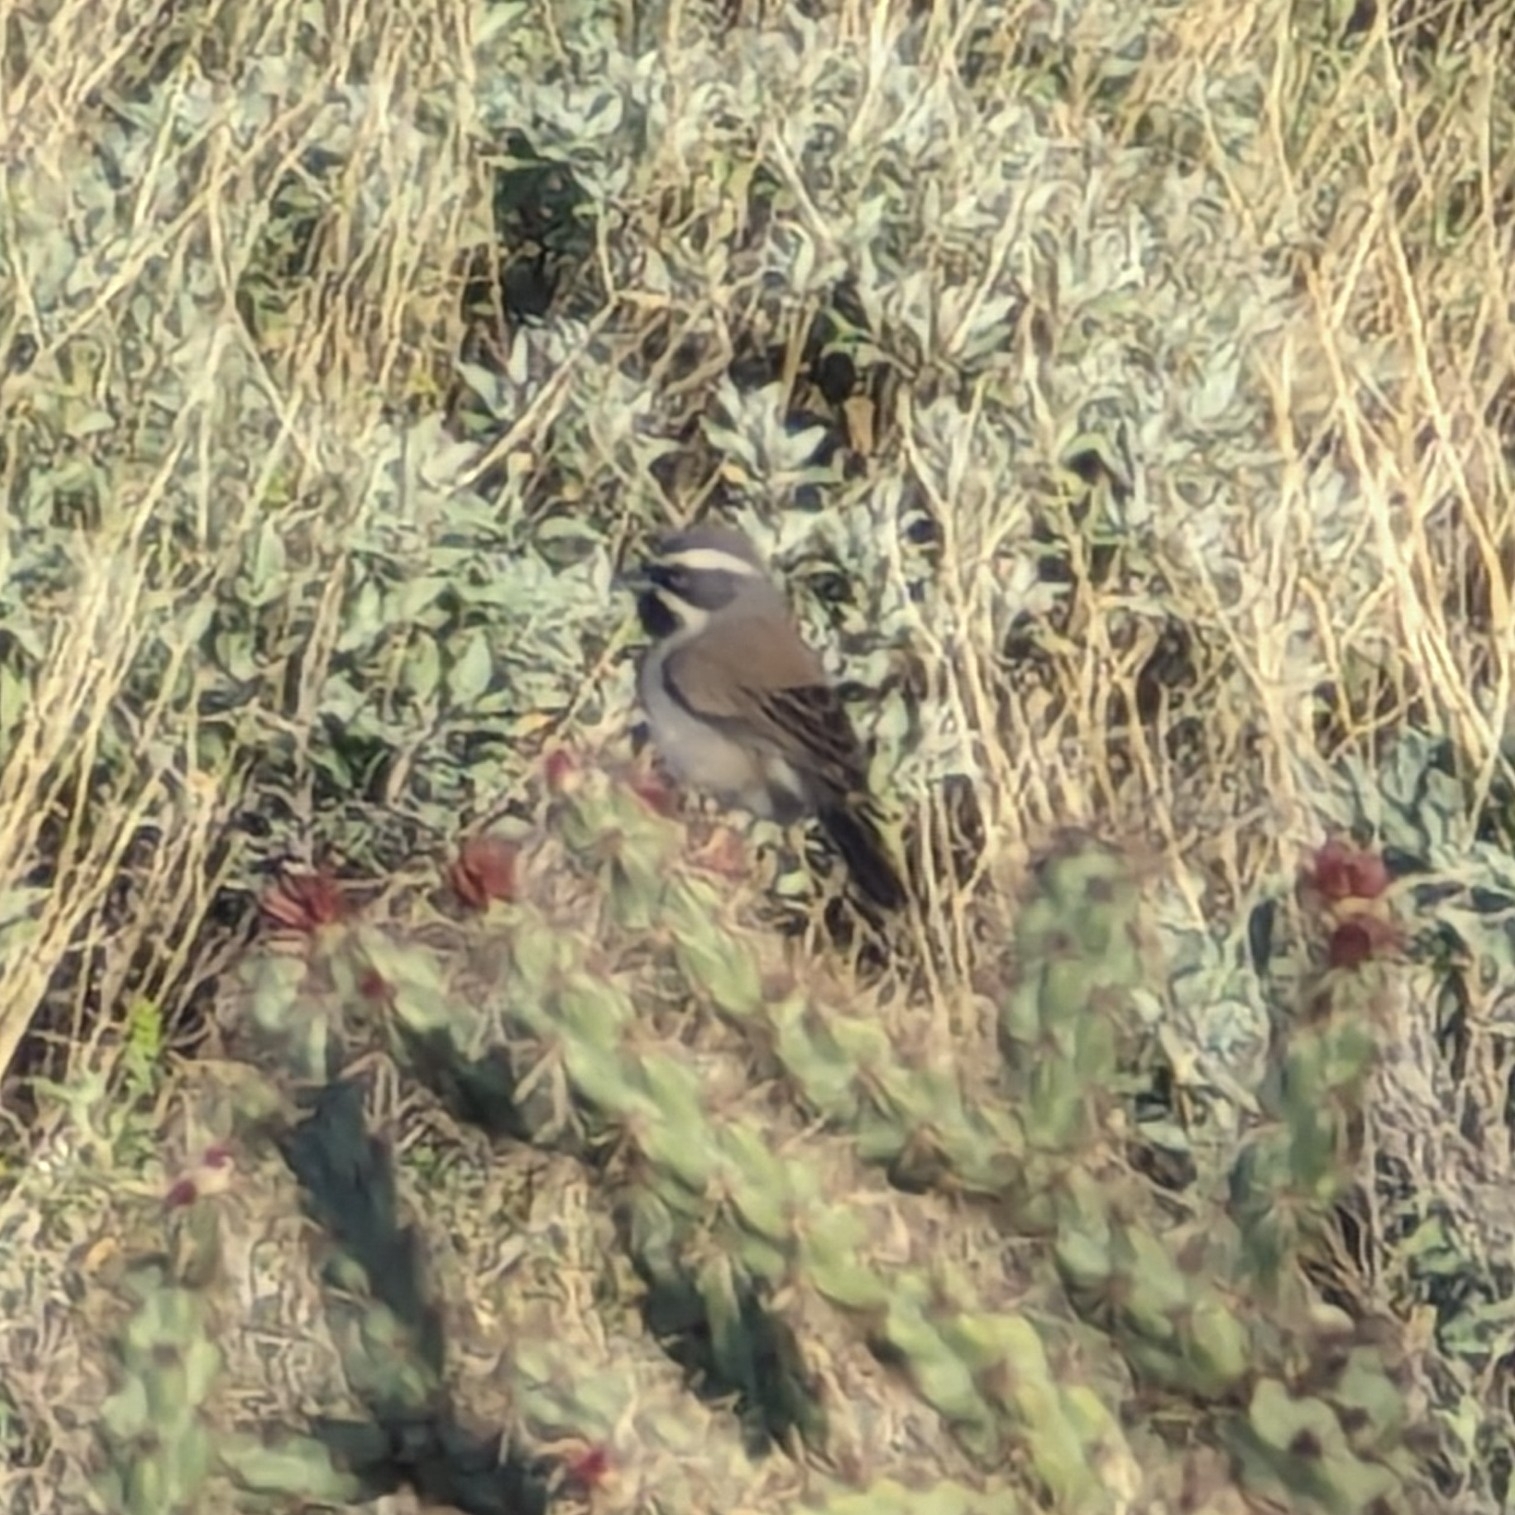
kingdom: Animalia
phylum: Chordata
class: Aves
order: Passeriformes
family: Passerellidae
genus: Amphispiza
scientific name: Amphispiza bilineata
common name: Black-throated sparrow
